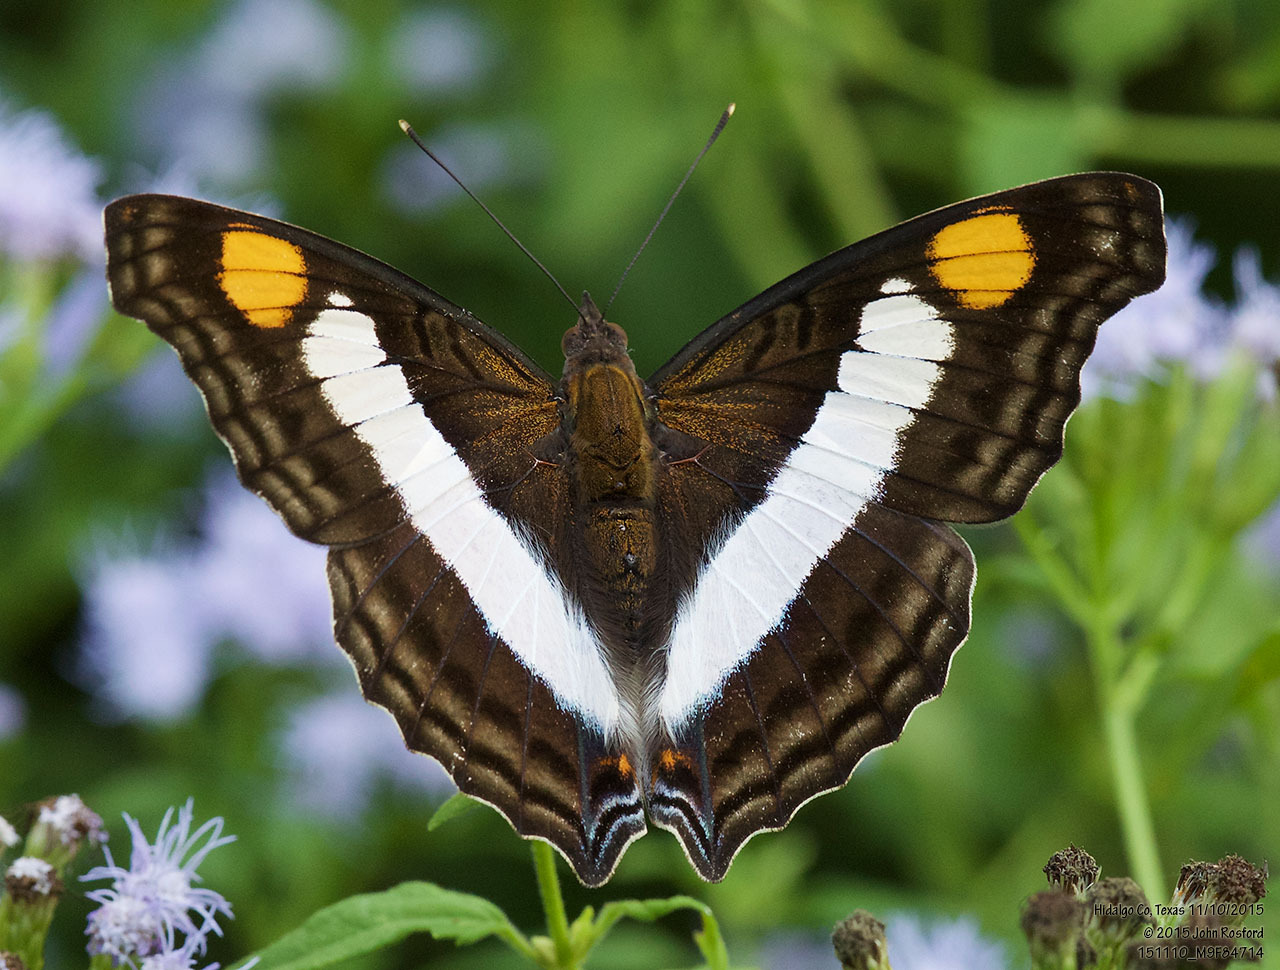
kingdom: Animalia
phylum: Arthropoda
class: Insecta
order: Lepidoptera
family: Nymphalidae
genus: Doxocopa
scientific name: Doxocopa laure
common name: Silver emperor
